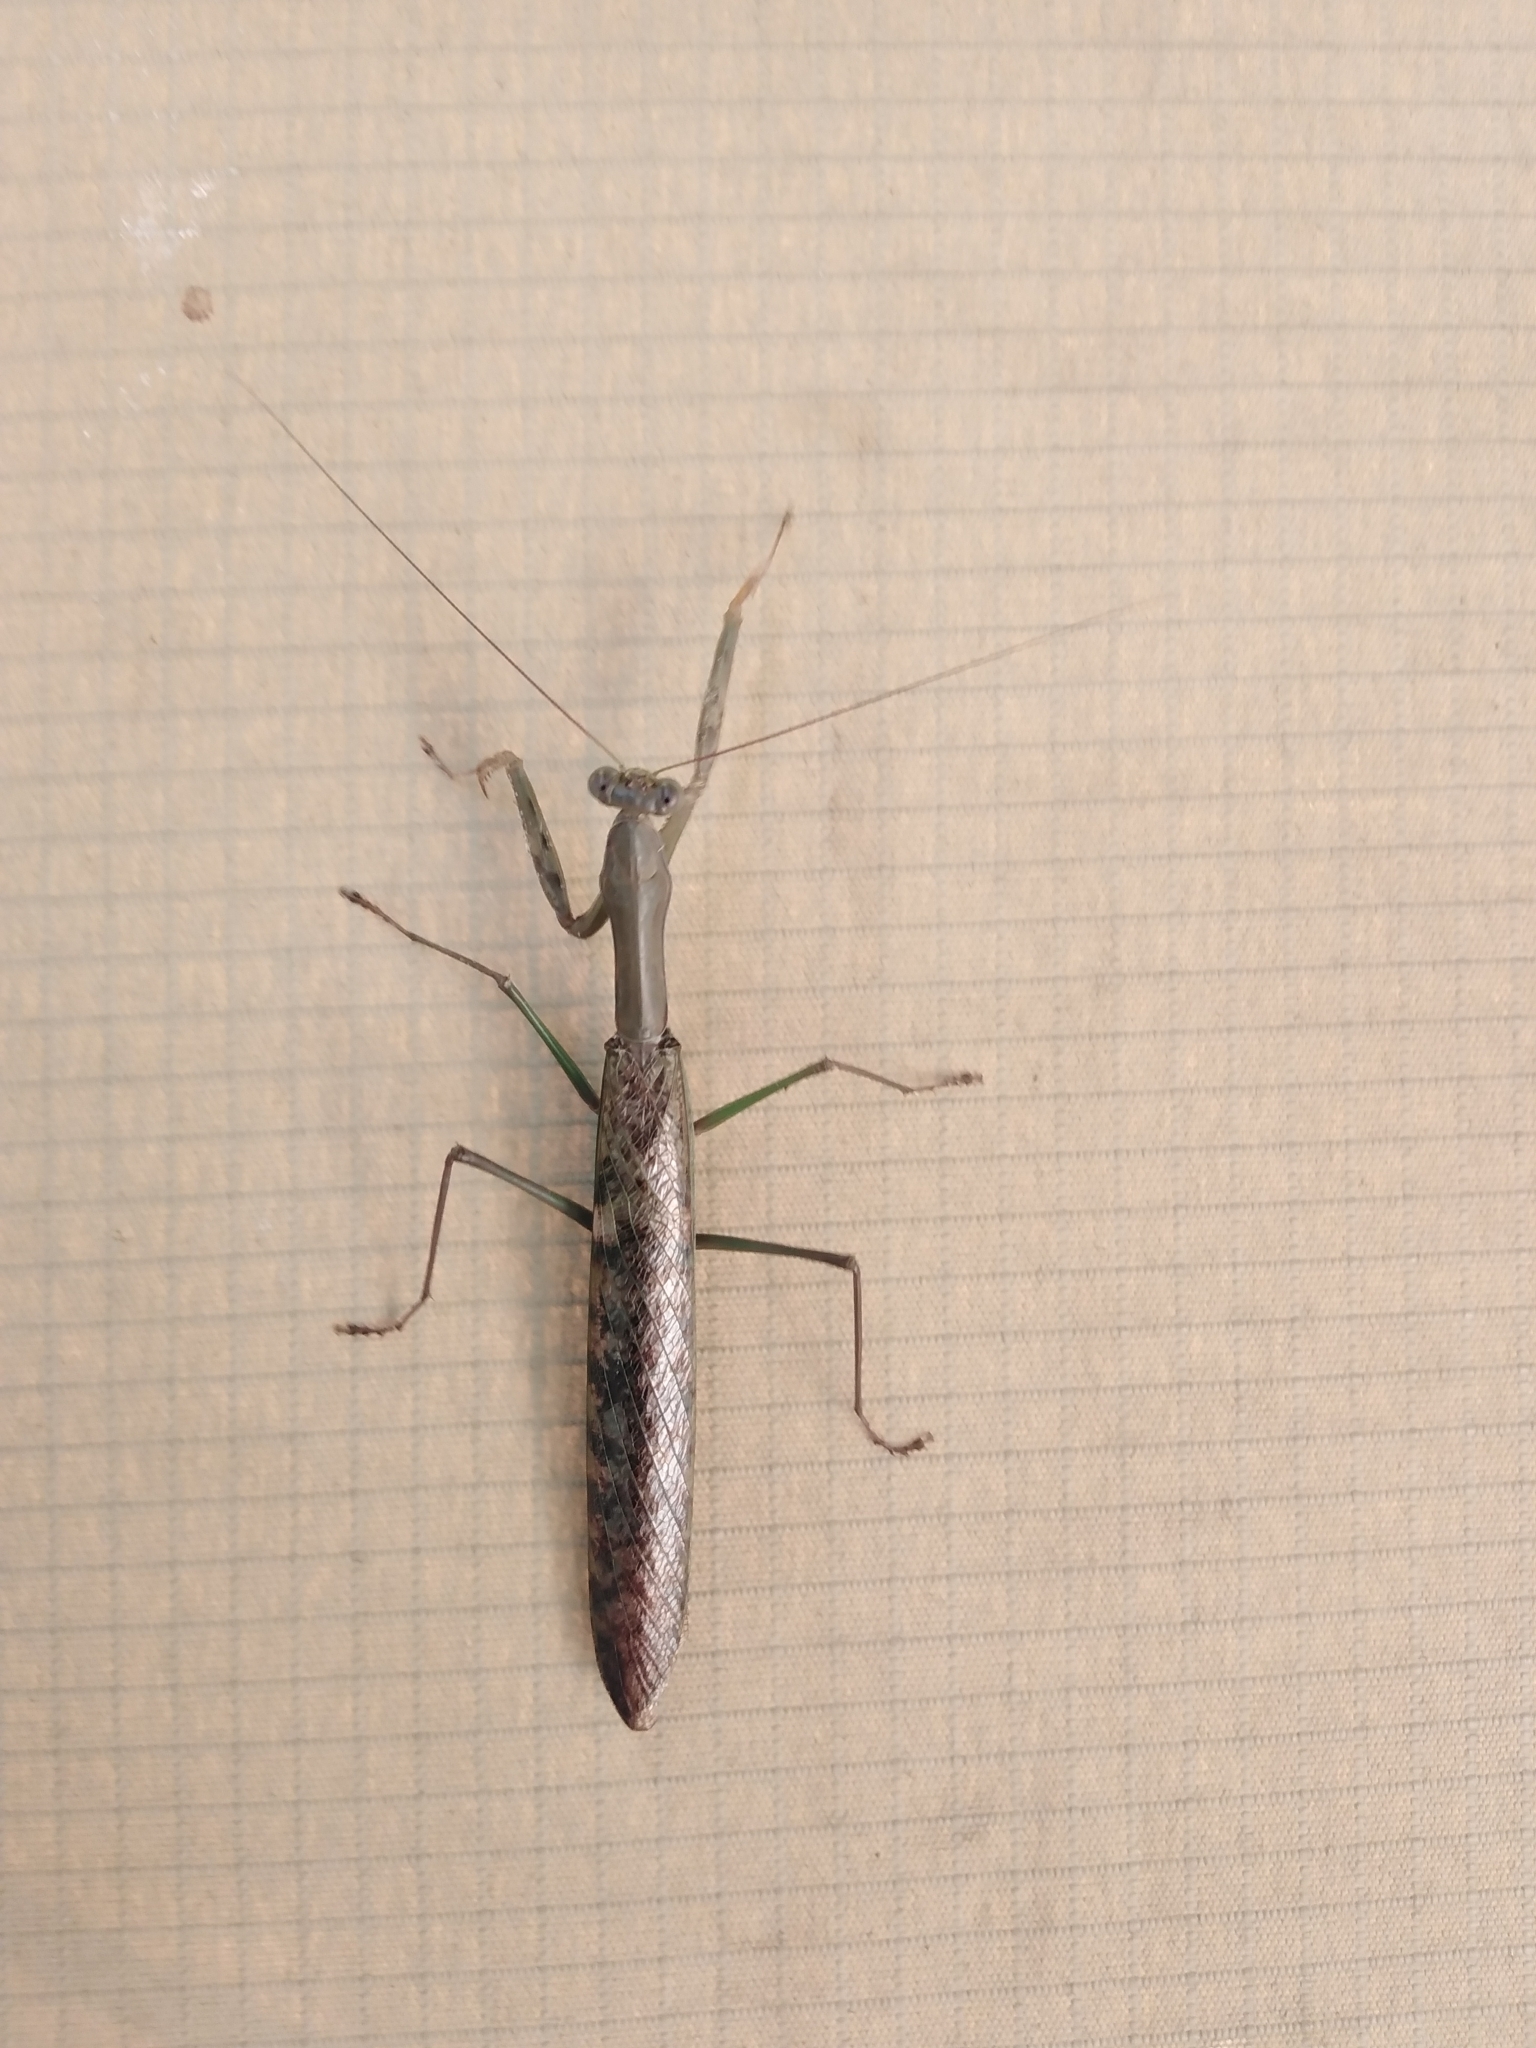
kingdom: Animalia
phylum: Arthropoda
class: Insecta
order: Mantodea
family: Mantidae
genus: Polyspilota
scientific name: Polyspilota aeruginosa
